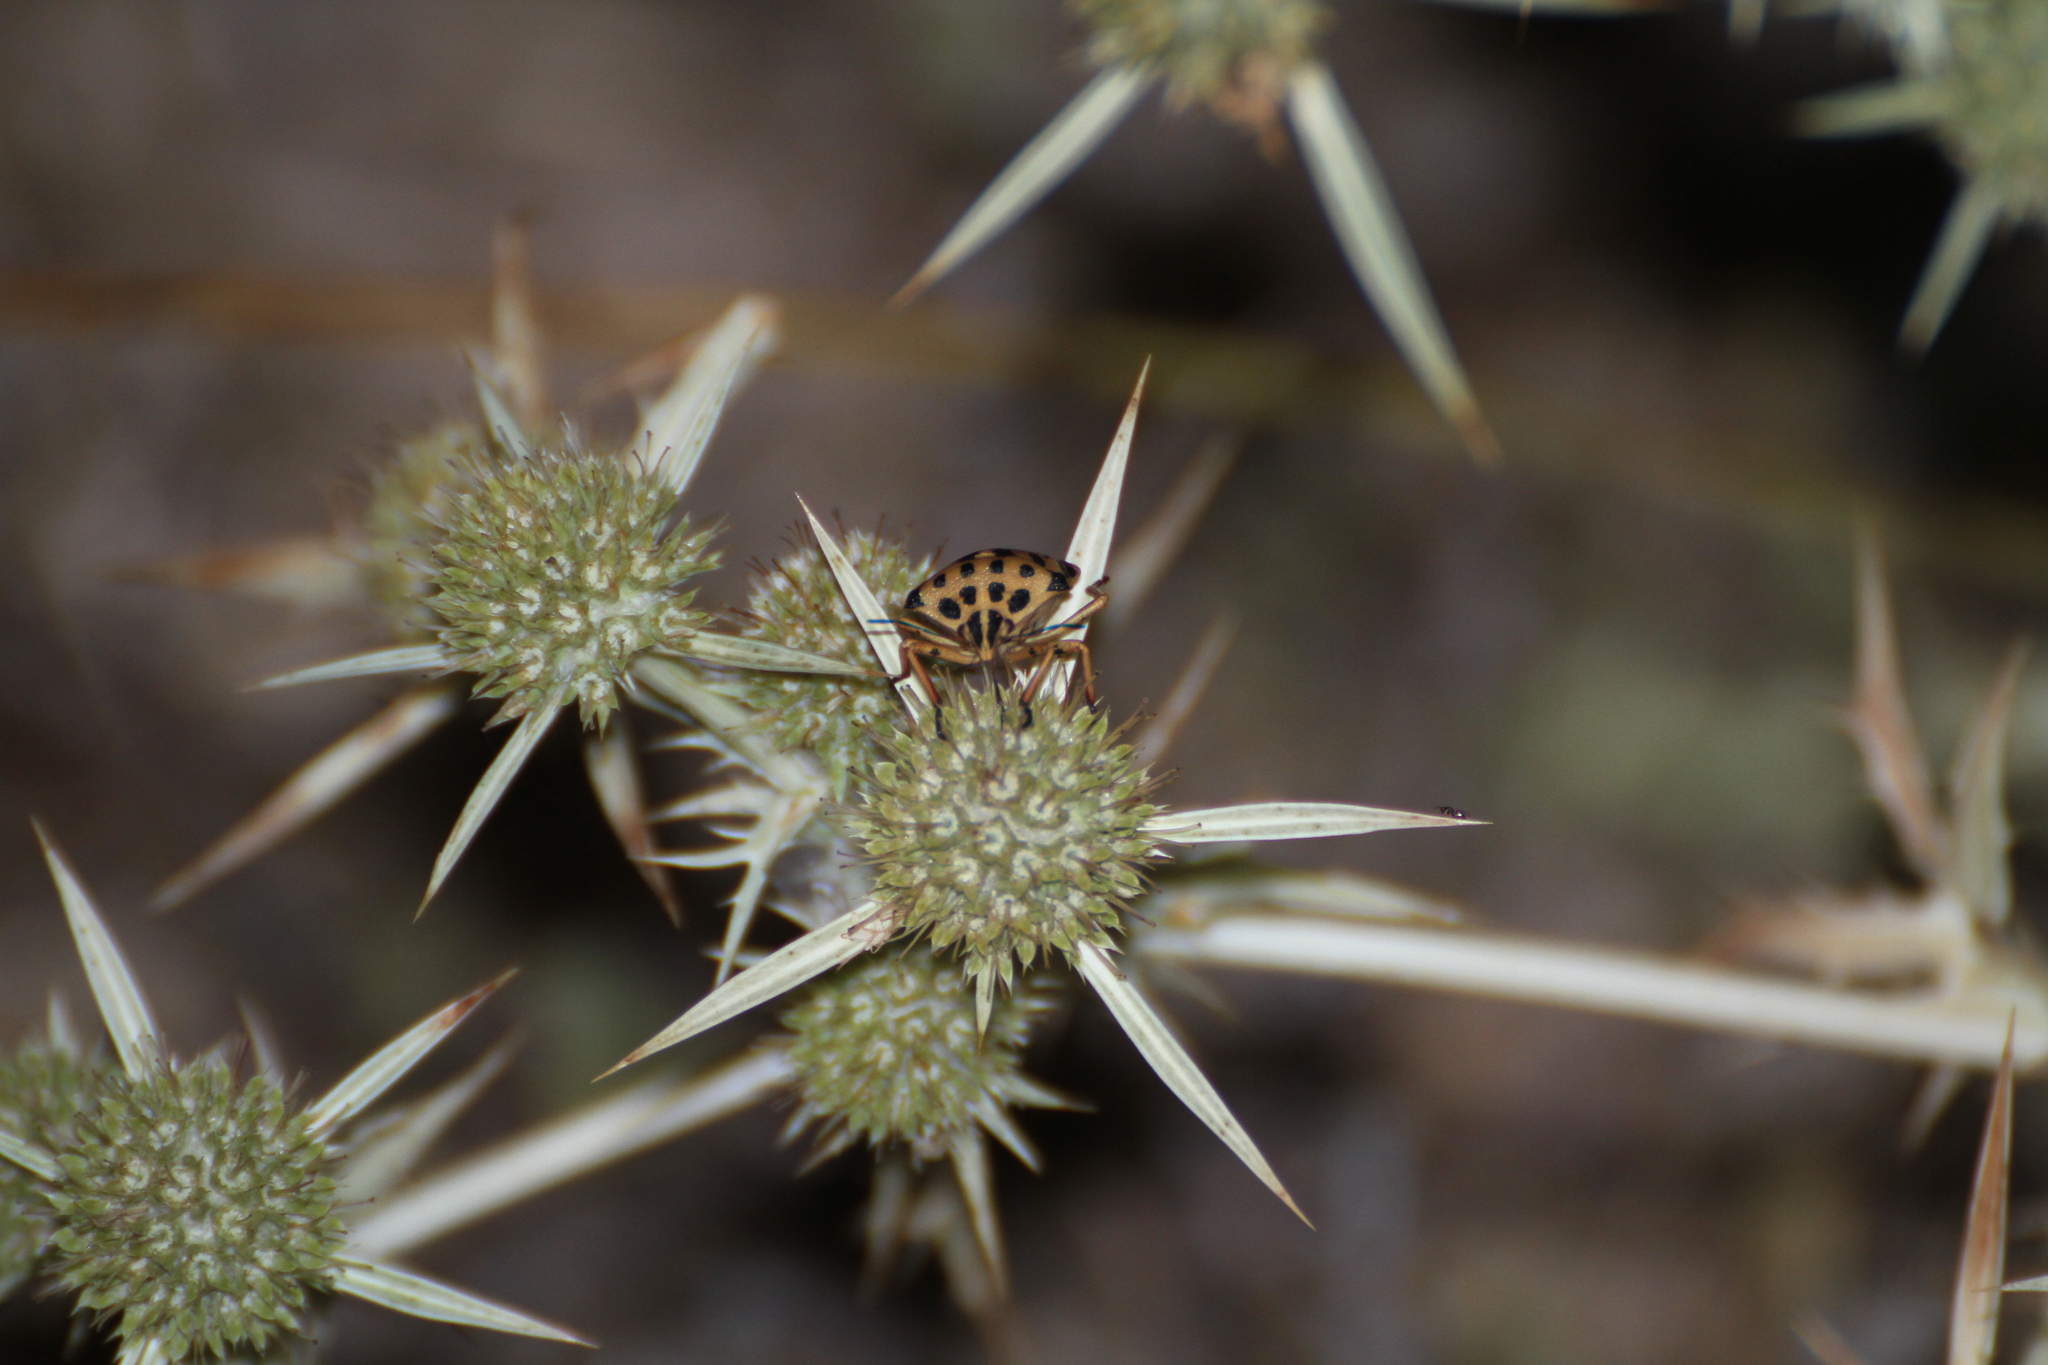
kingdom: Animalia
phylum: Arthropoda
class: Insecta
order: Hemiptera
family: Pentatomidae
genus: Graphosoma
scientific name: Graphosoma semipunctatum
